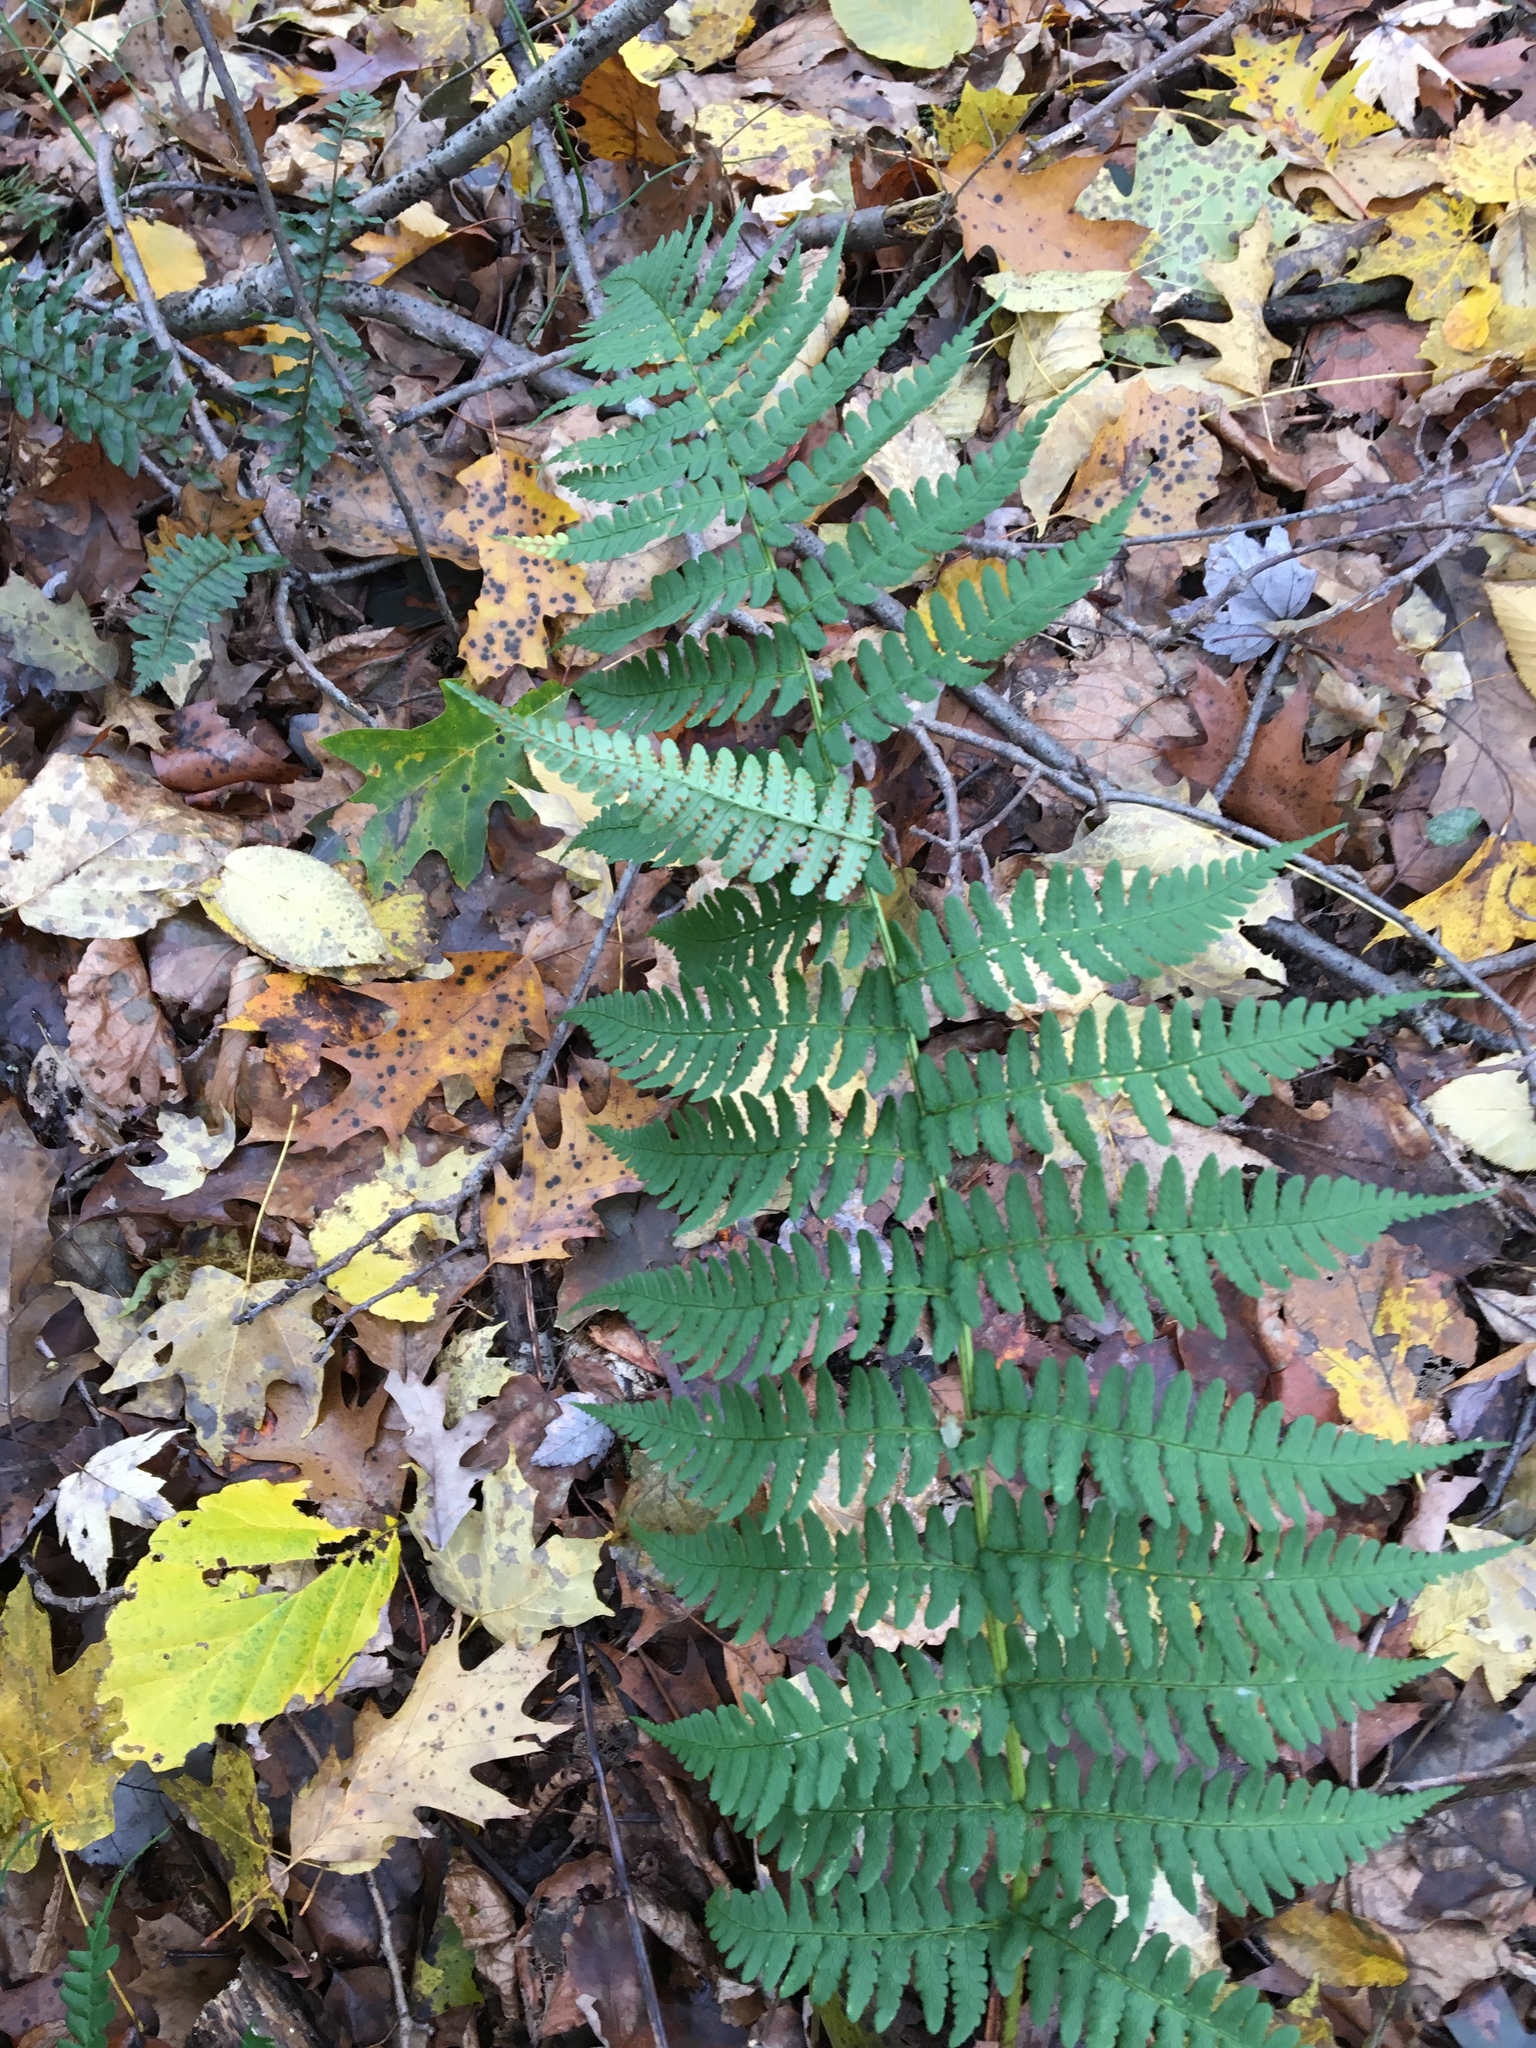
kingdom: Plantae
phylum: Tracheophyta
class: Polypodiopsida
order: Polypodiales
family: Dryopteridaceae
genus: Dryopteris
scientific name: Dryopteris marginalis
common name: Marginal wood fern
